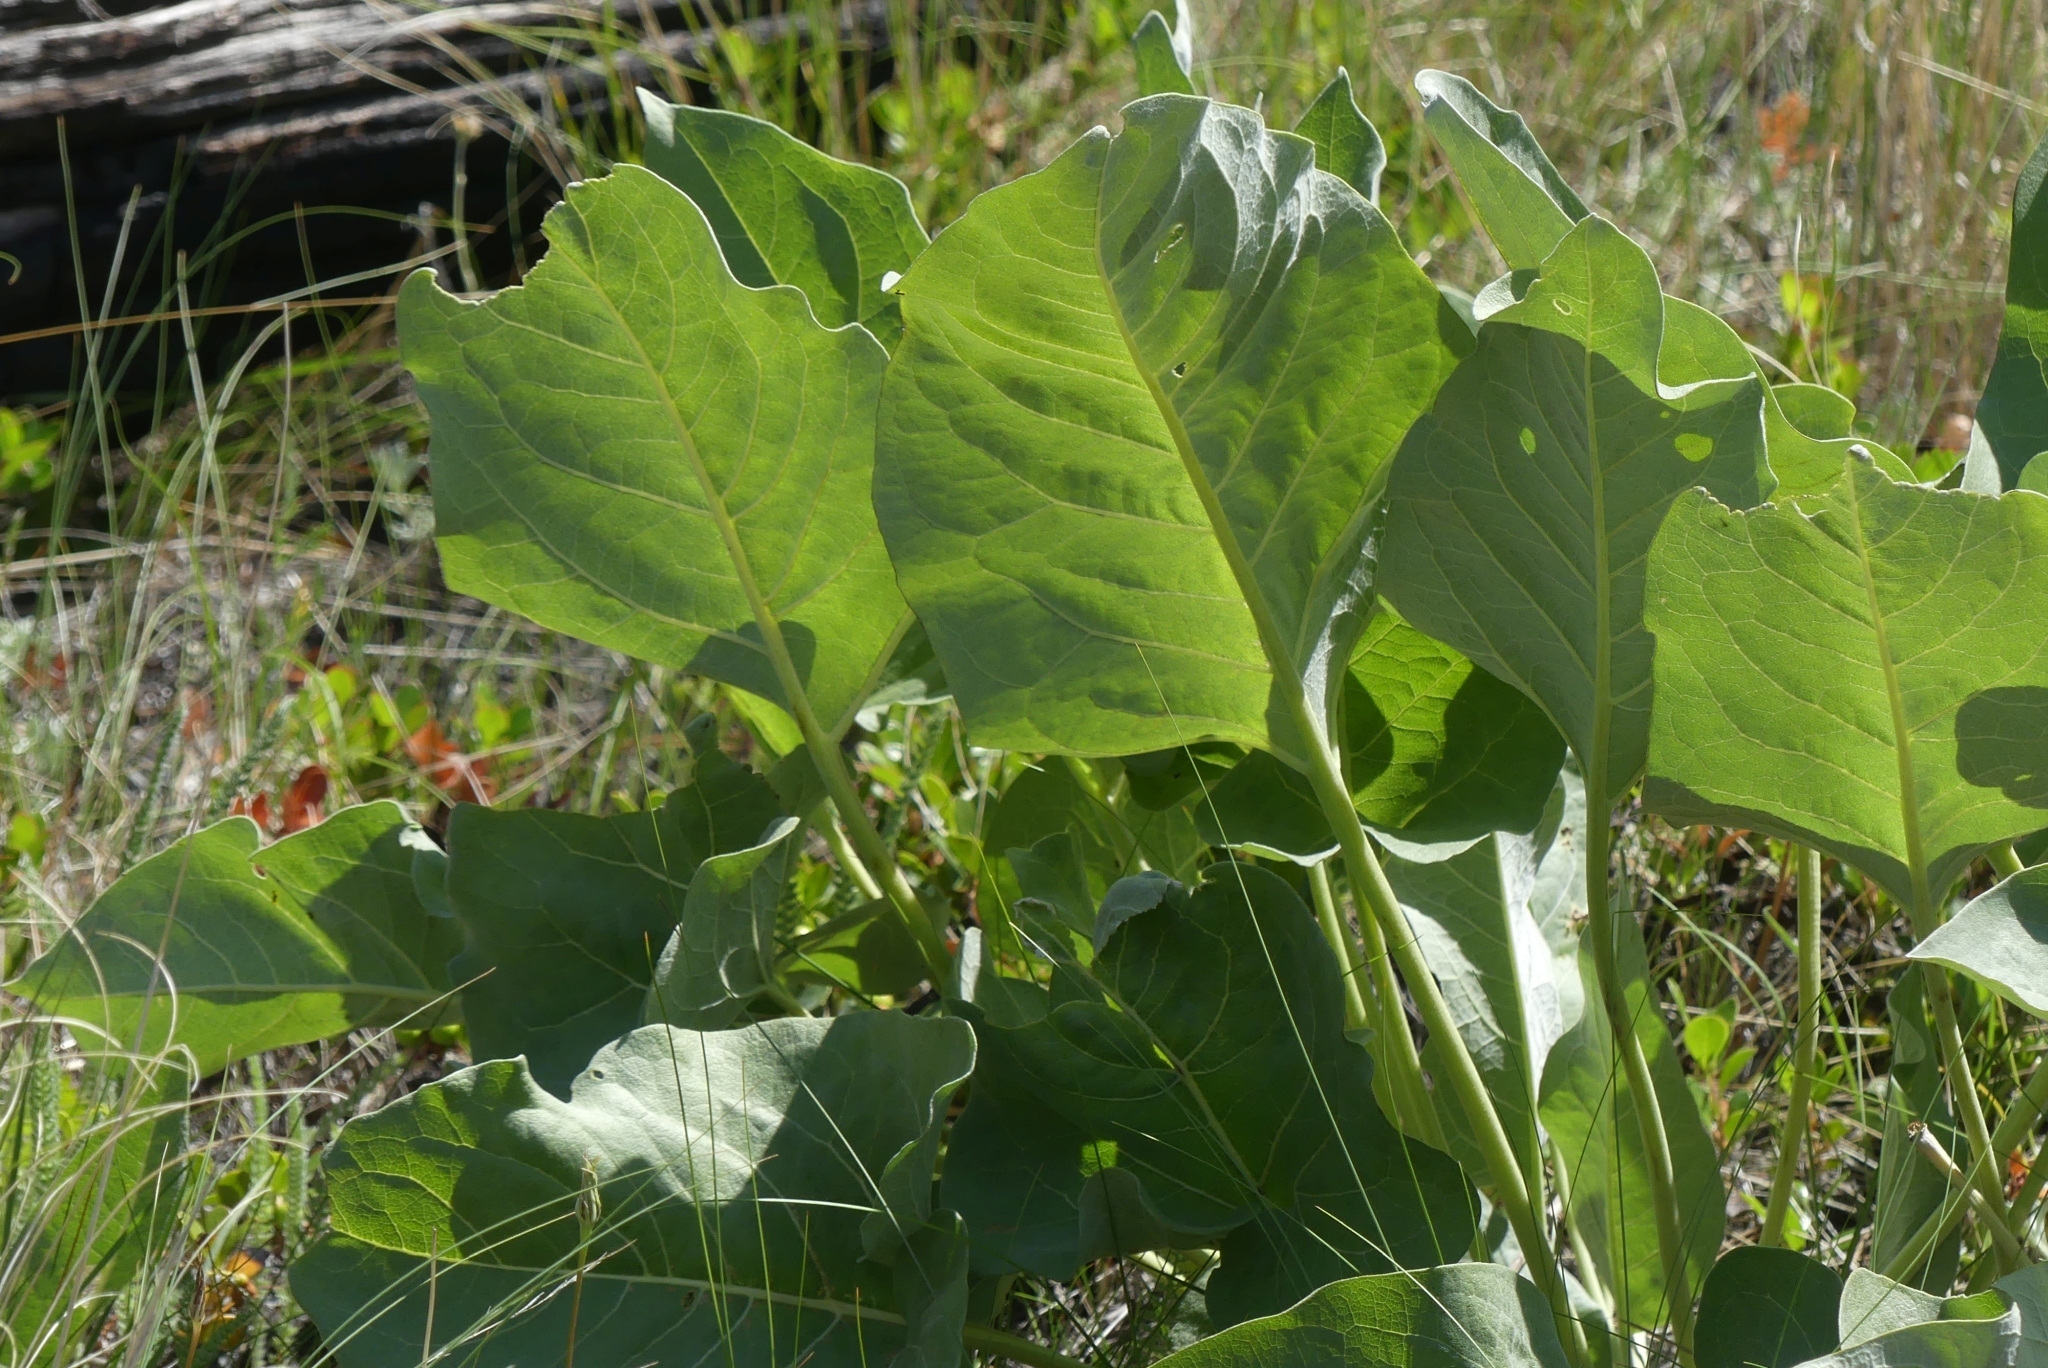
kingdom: Plantae
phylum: Tracheophyta
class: Magnoliopsida
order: Asterales
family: Asteraceae
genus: Wyethia
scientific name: Wyethia sagittata
